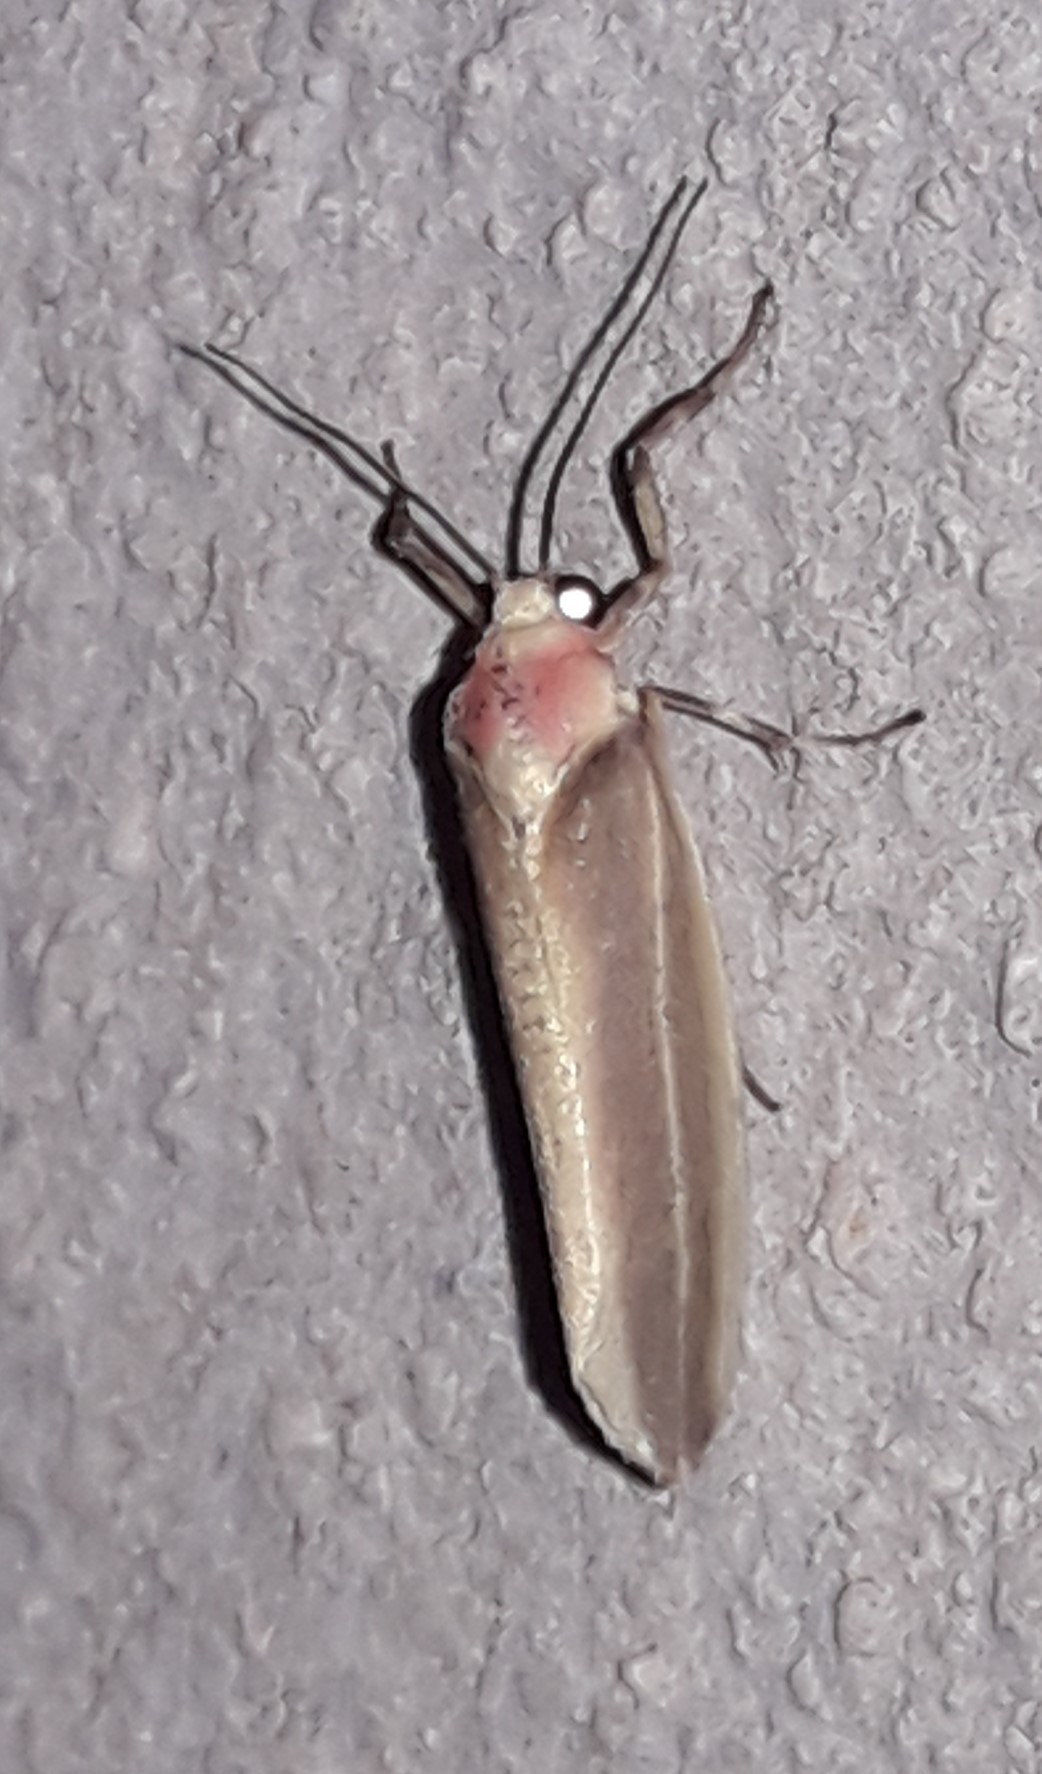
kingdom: Animalia
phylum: Arthropoda
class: Insecta
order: Lepidoptera
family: Erebidae
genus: Rhabdatomis
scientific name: Rhabdatomis
